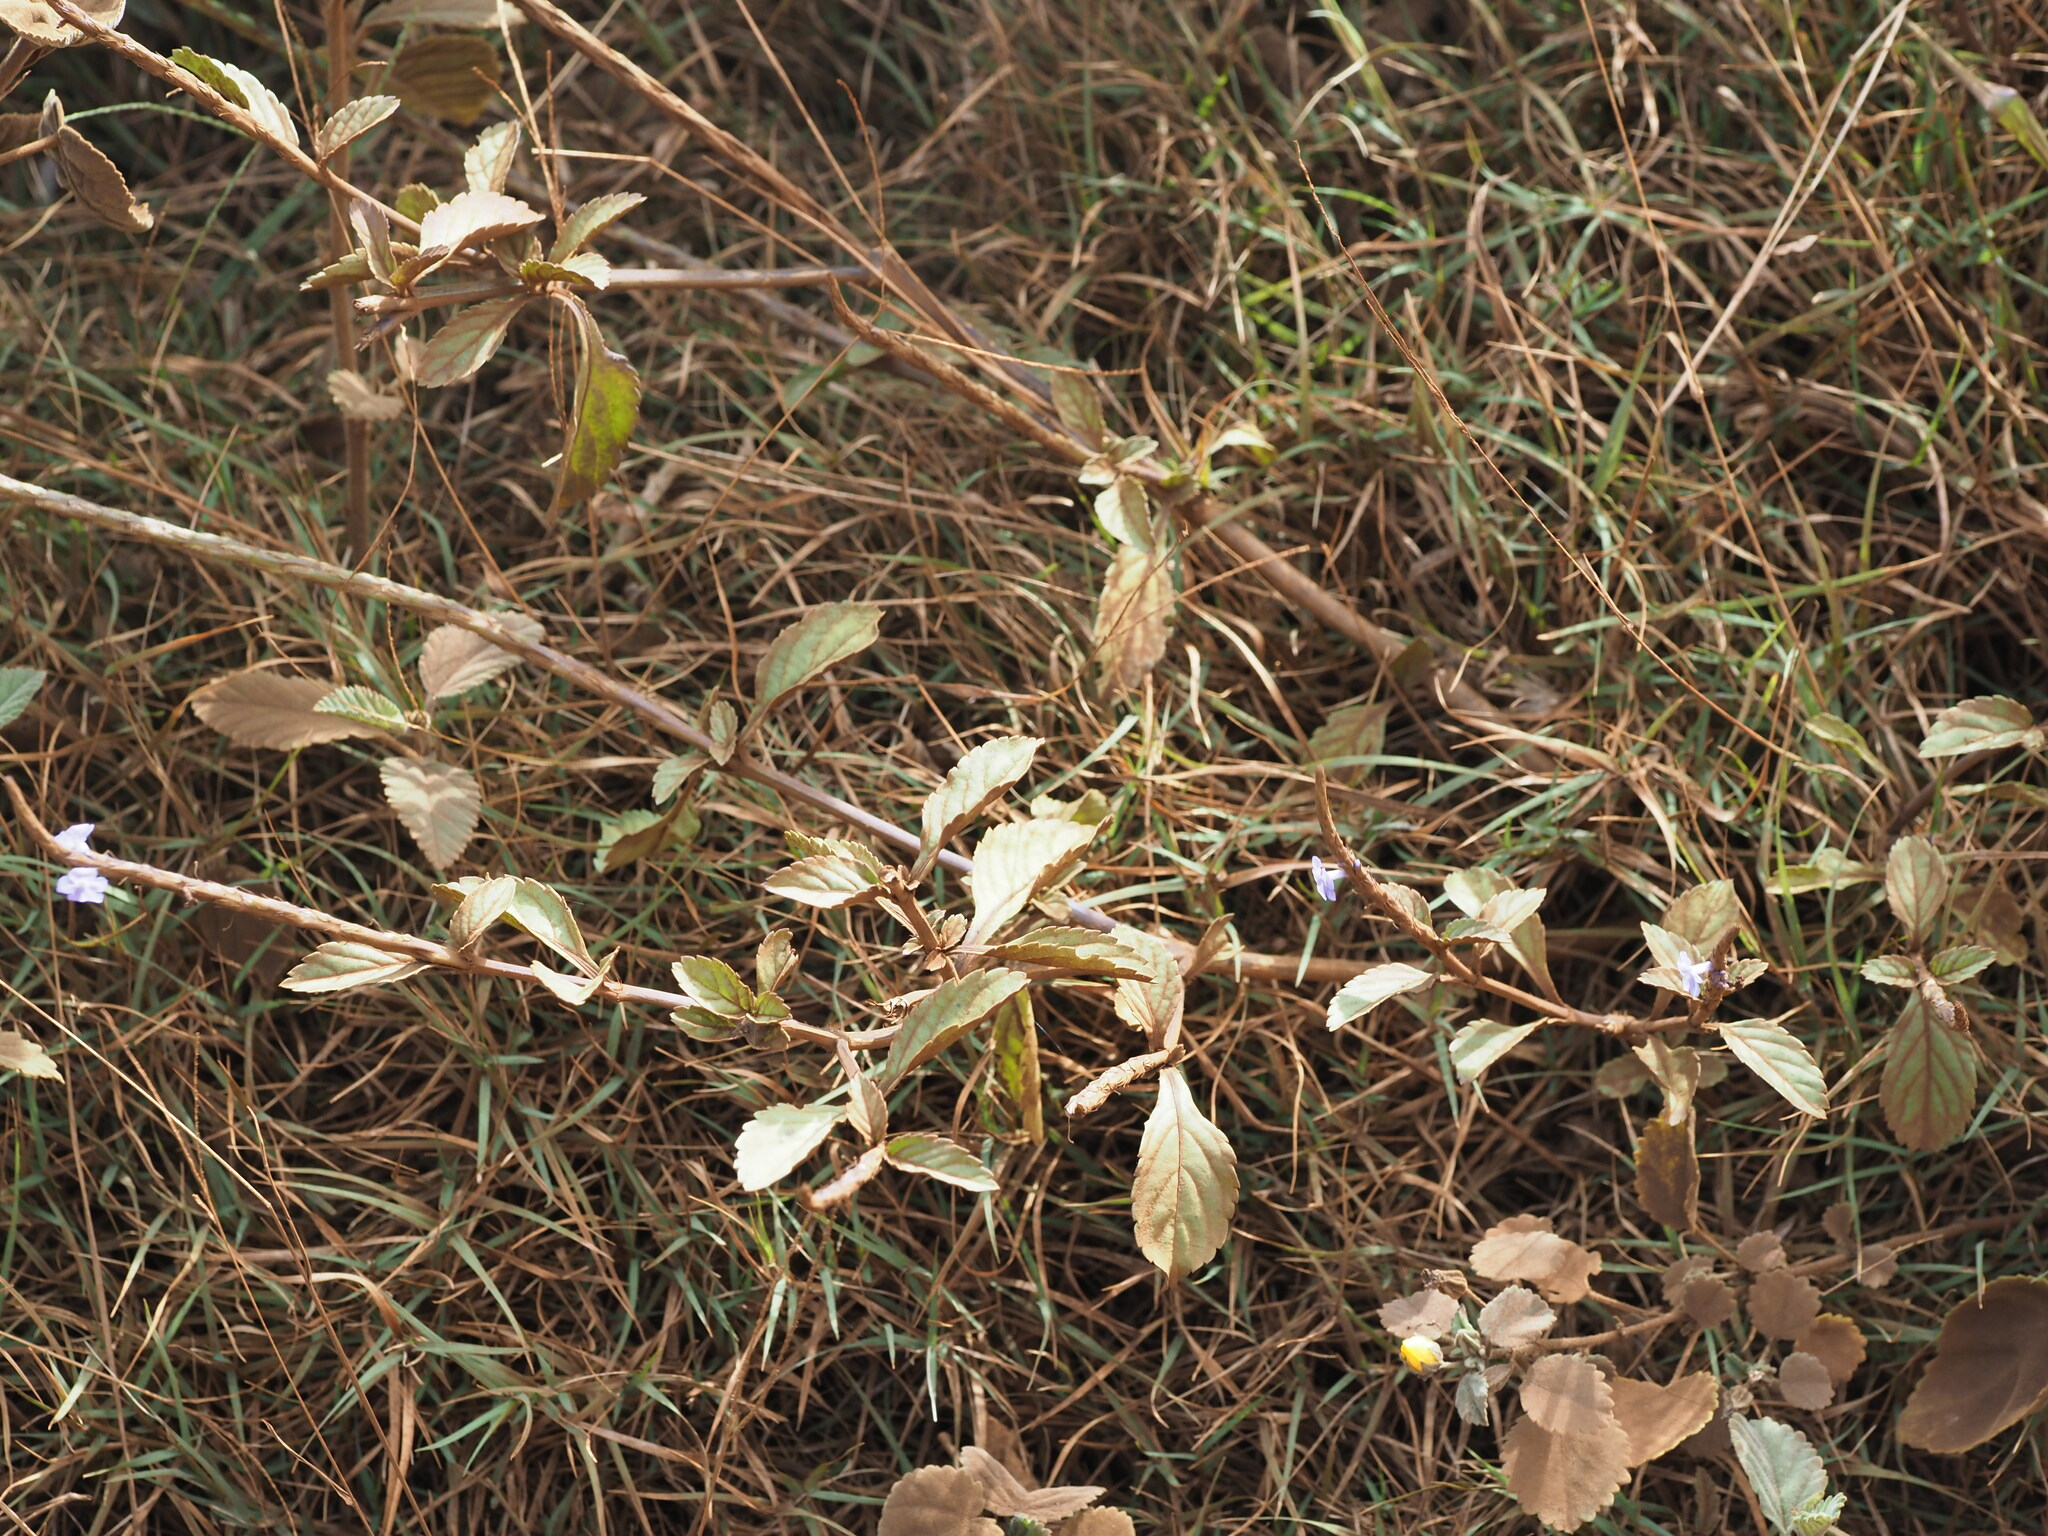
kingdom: Plantae
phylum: Tracheophyta
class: Magnoliopsida
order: Lamiales
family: Verbenaceae
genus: Stachytarpheta
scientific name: Stachytarpheta jamaicensis
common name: Light-blue snakeweed
